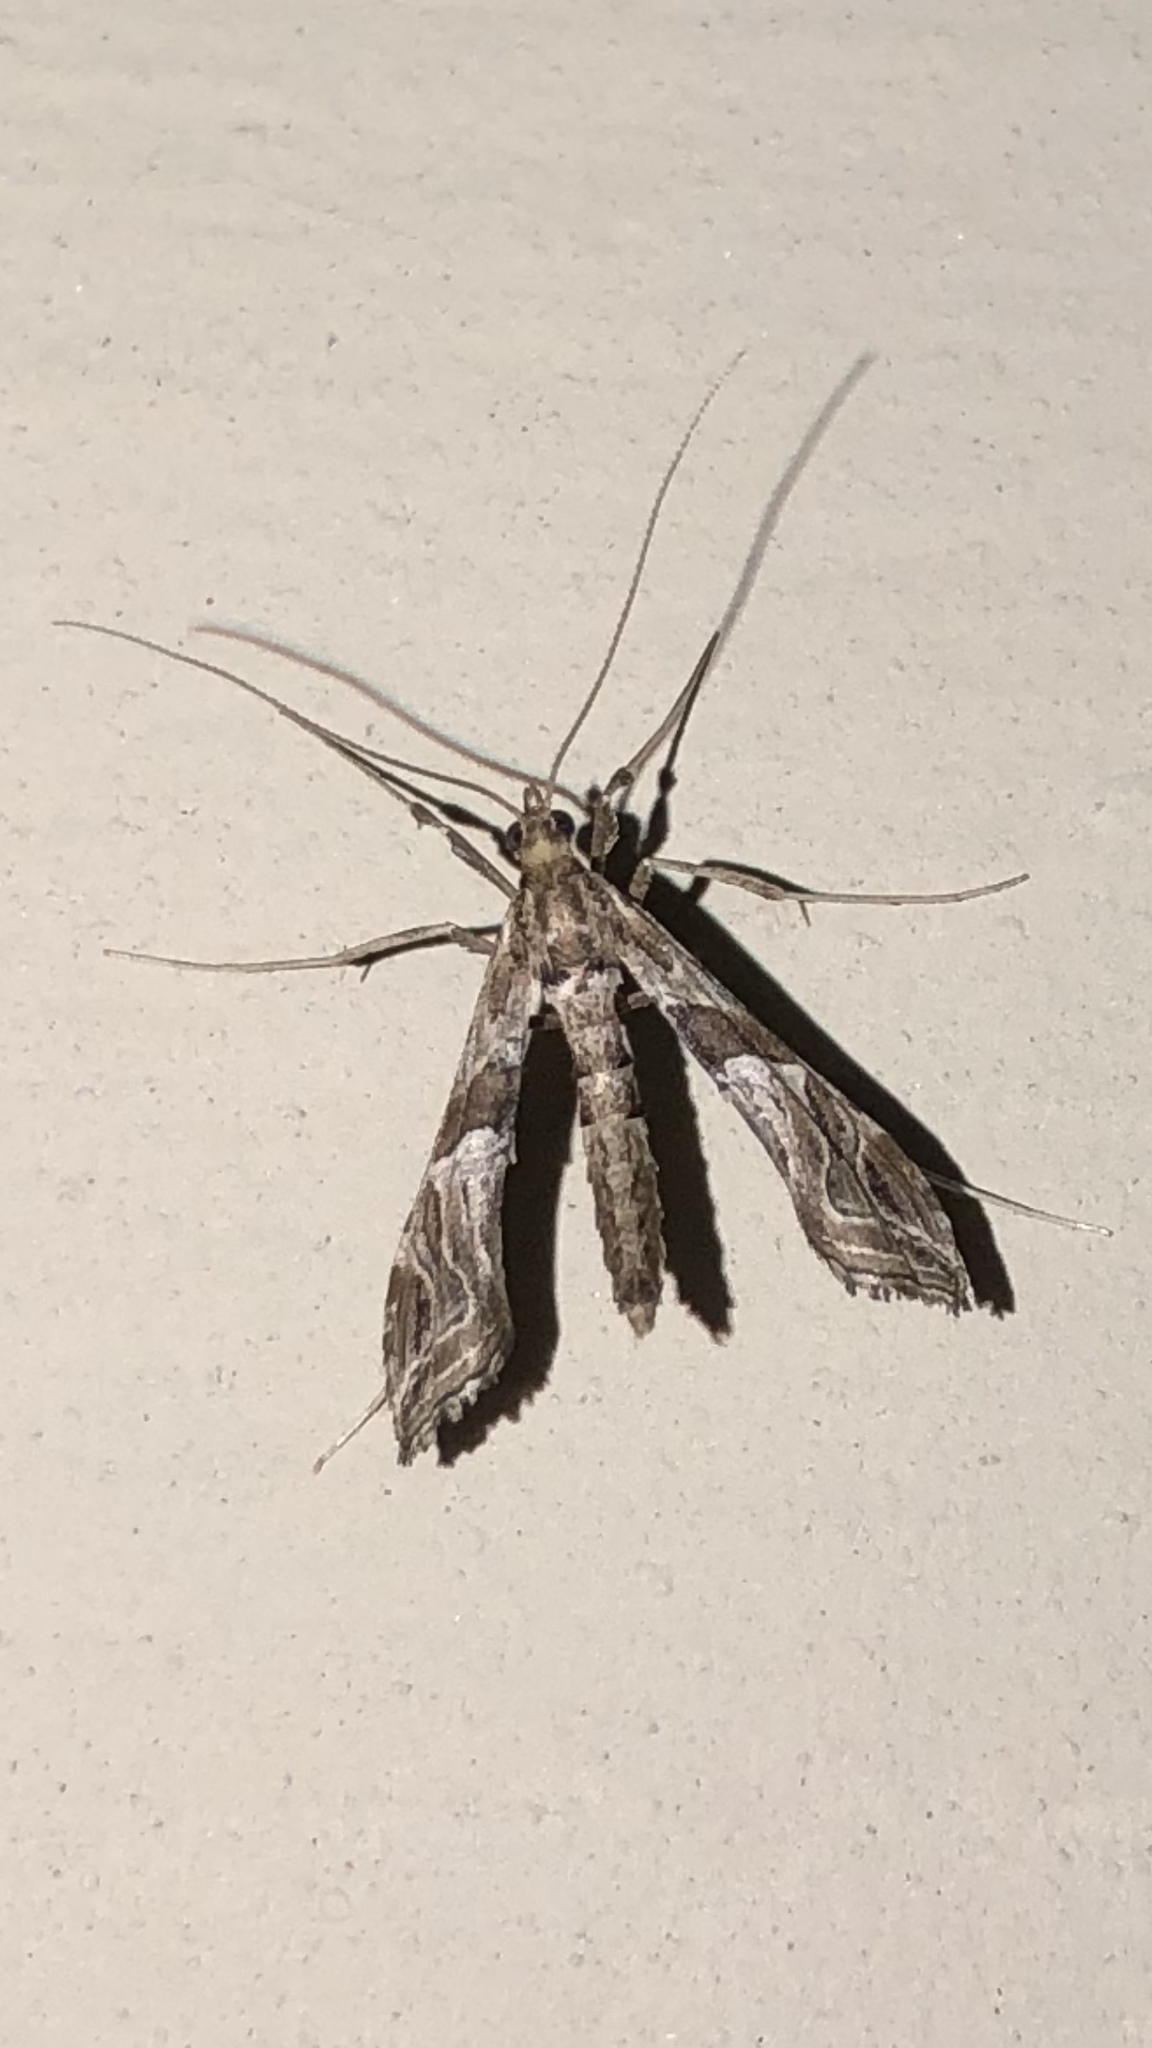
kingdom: Animalia
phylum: Arthropoda
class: Insecta
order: Lepidoptera
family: Crambidae
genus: Lineodes
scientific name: Lineodes interrupta
